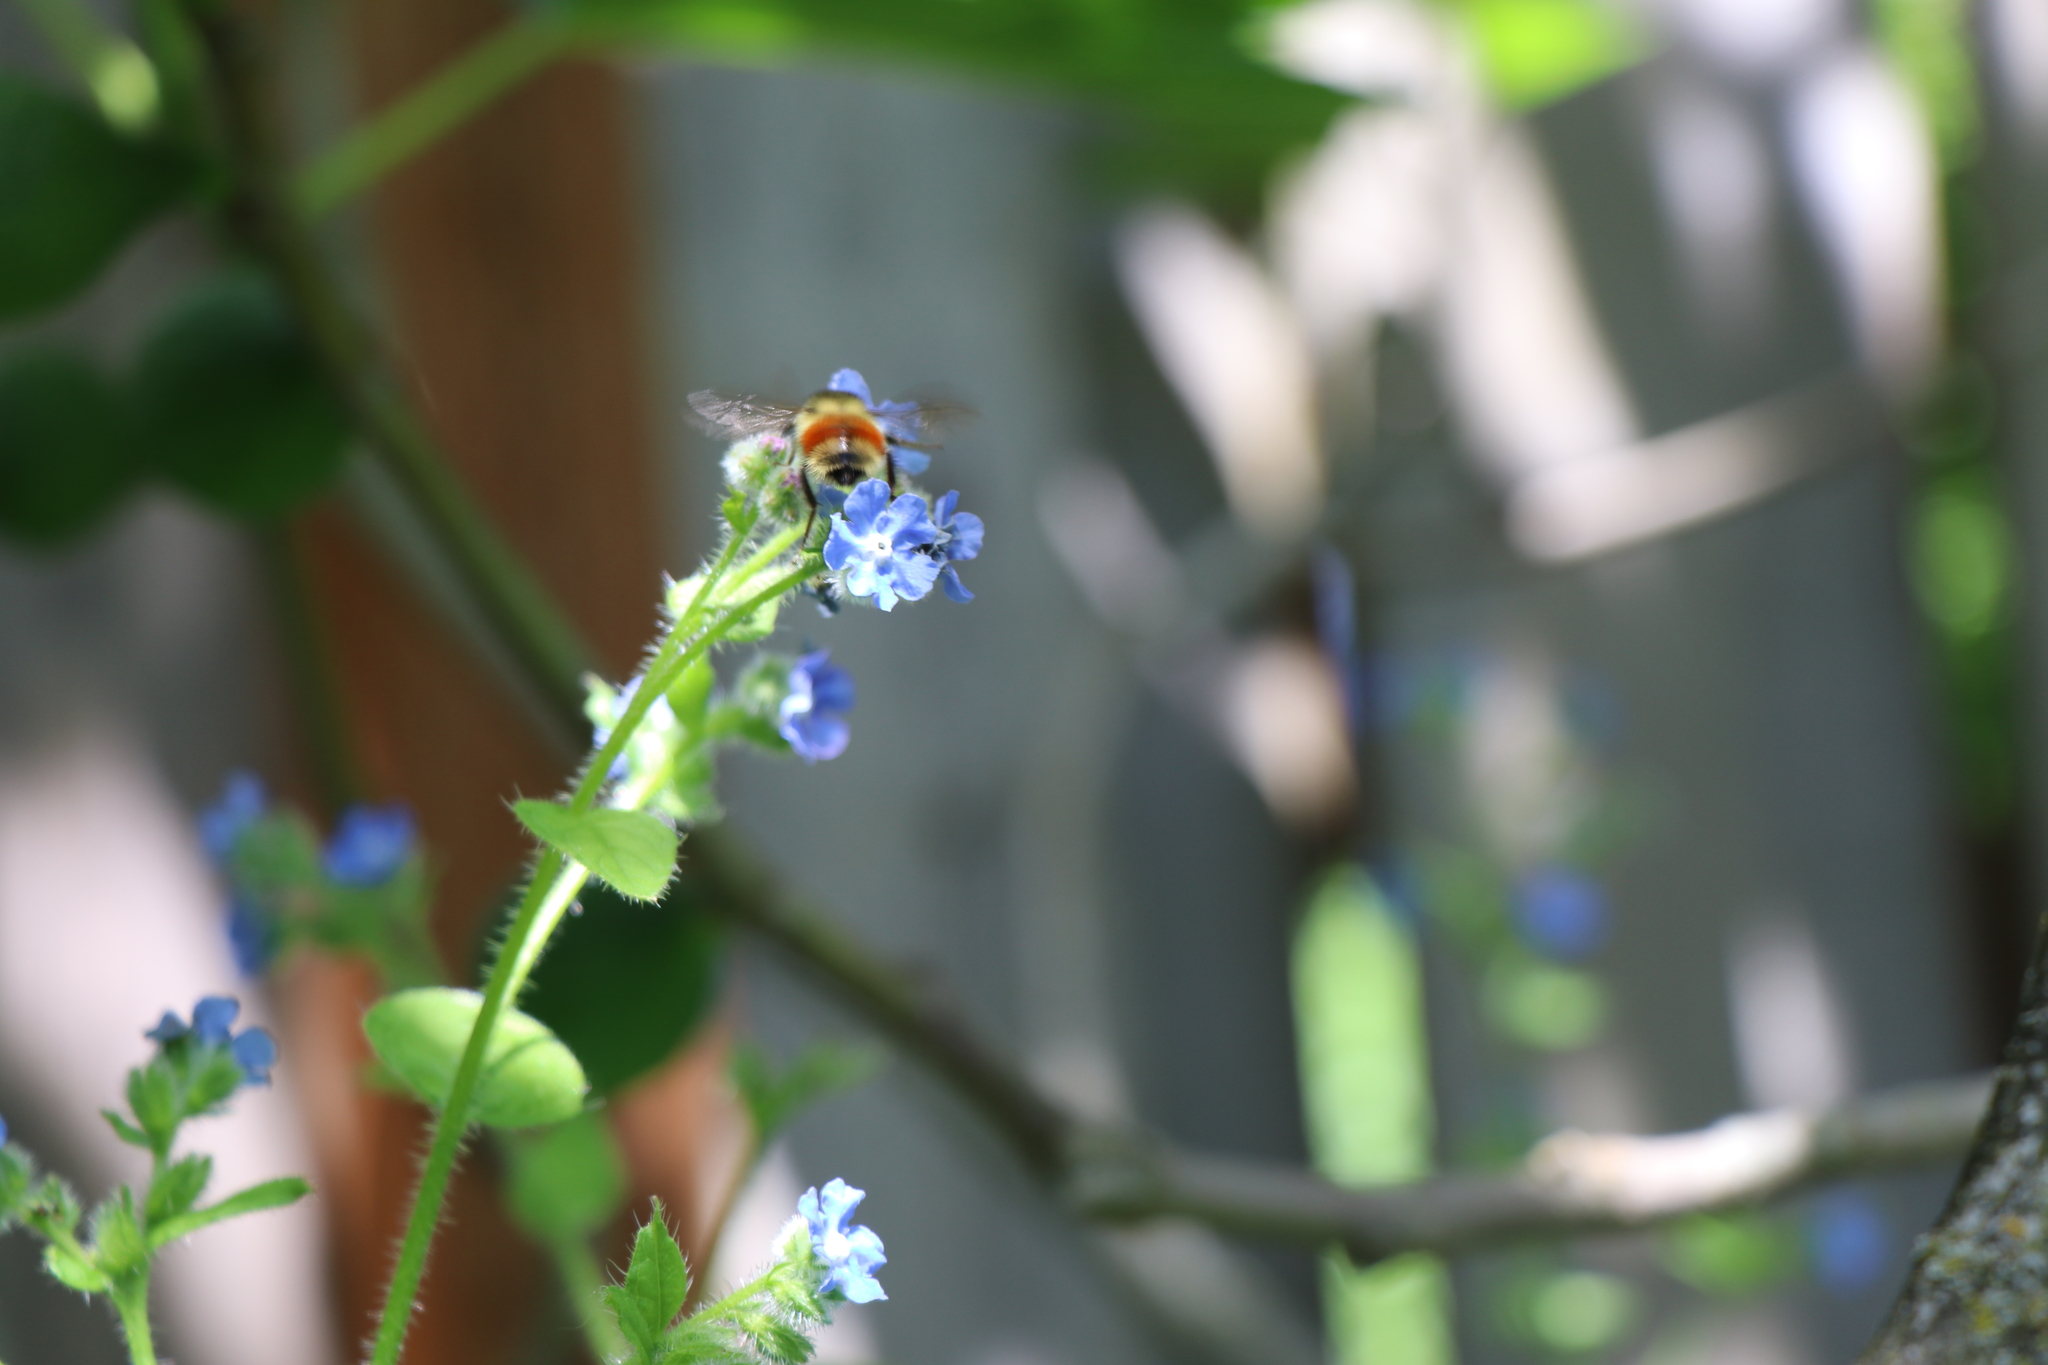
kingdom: Animalia
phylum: Arthropoda
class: Insecta
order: Hymenoptera
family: Apidae
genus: Bombus
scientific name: Bombus melanopygus
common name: Black tail bumble bee
